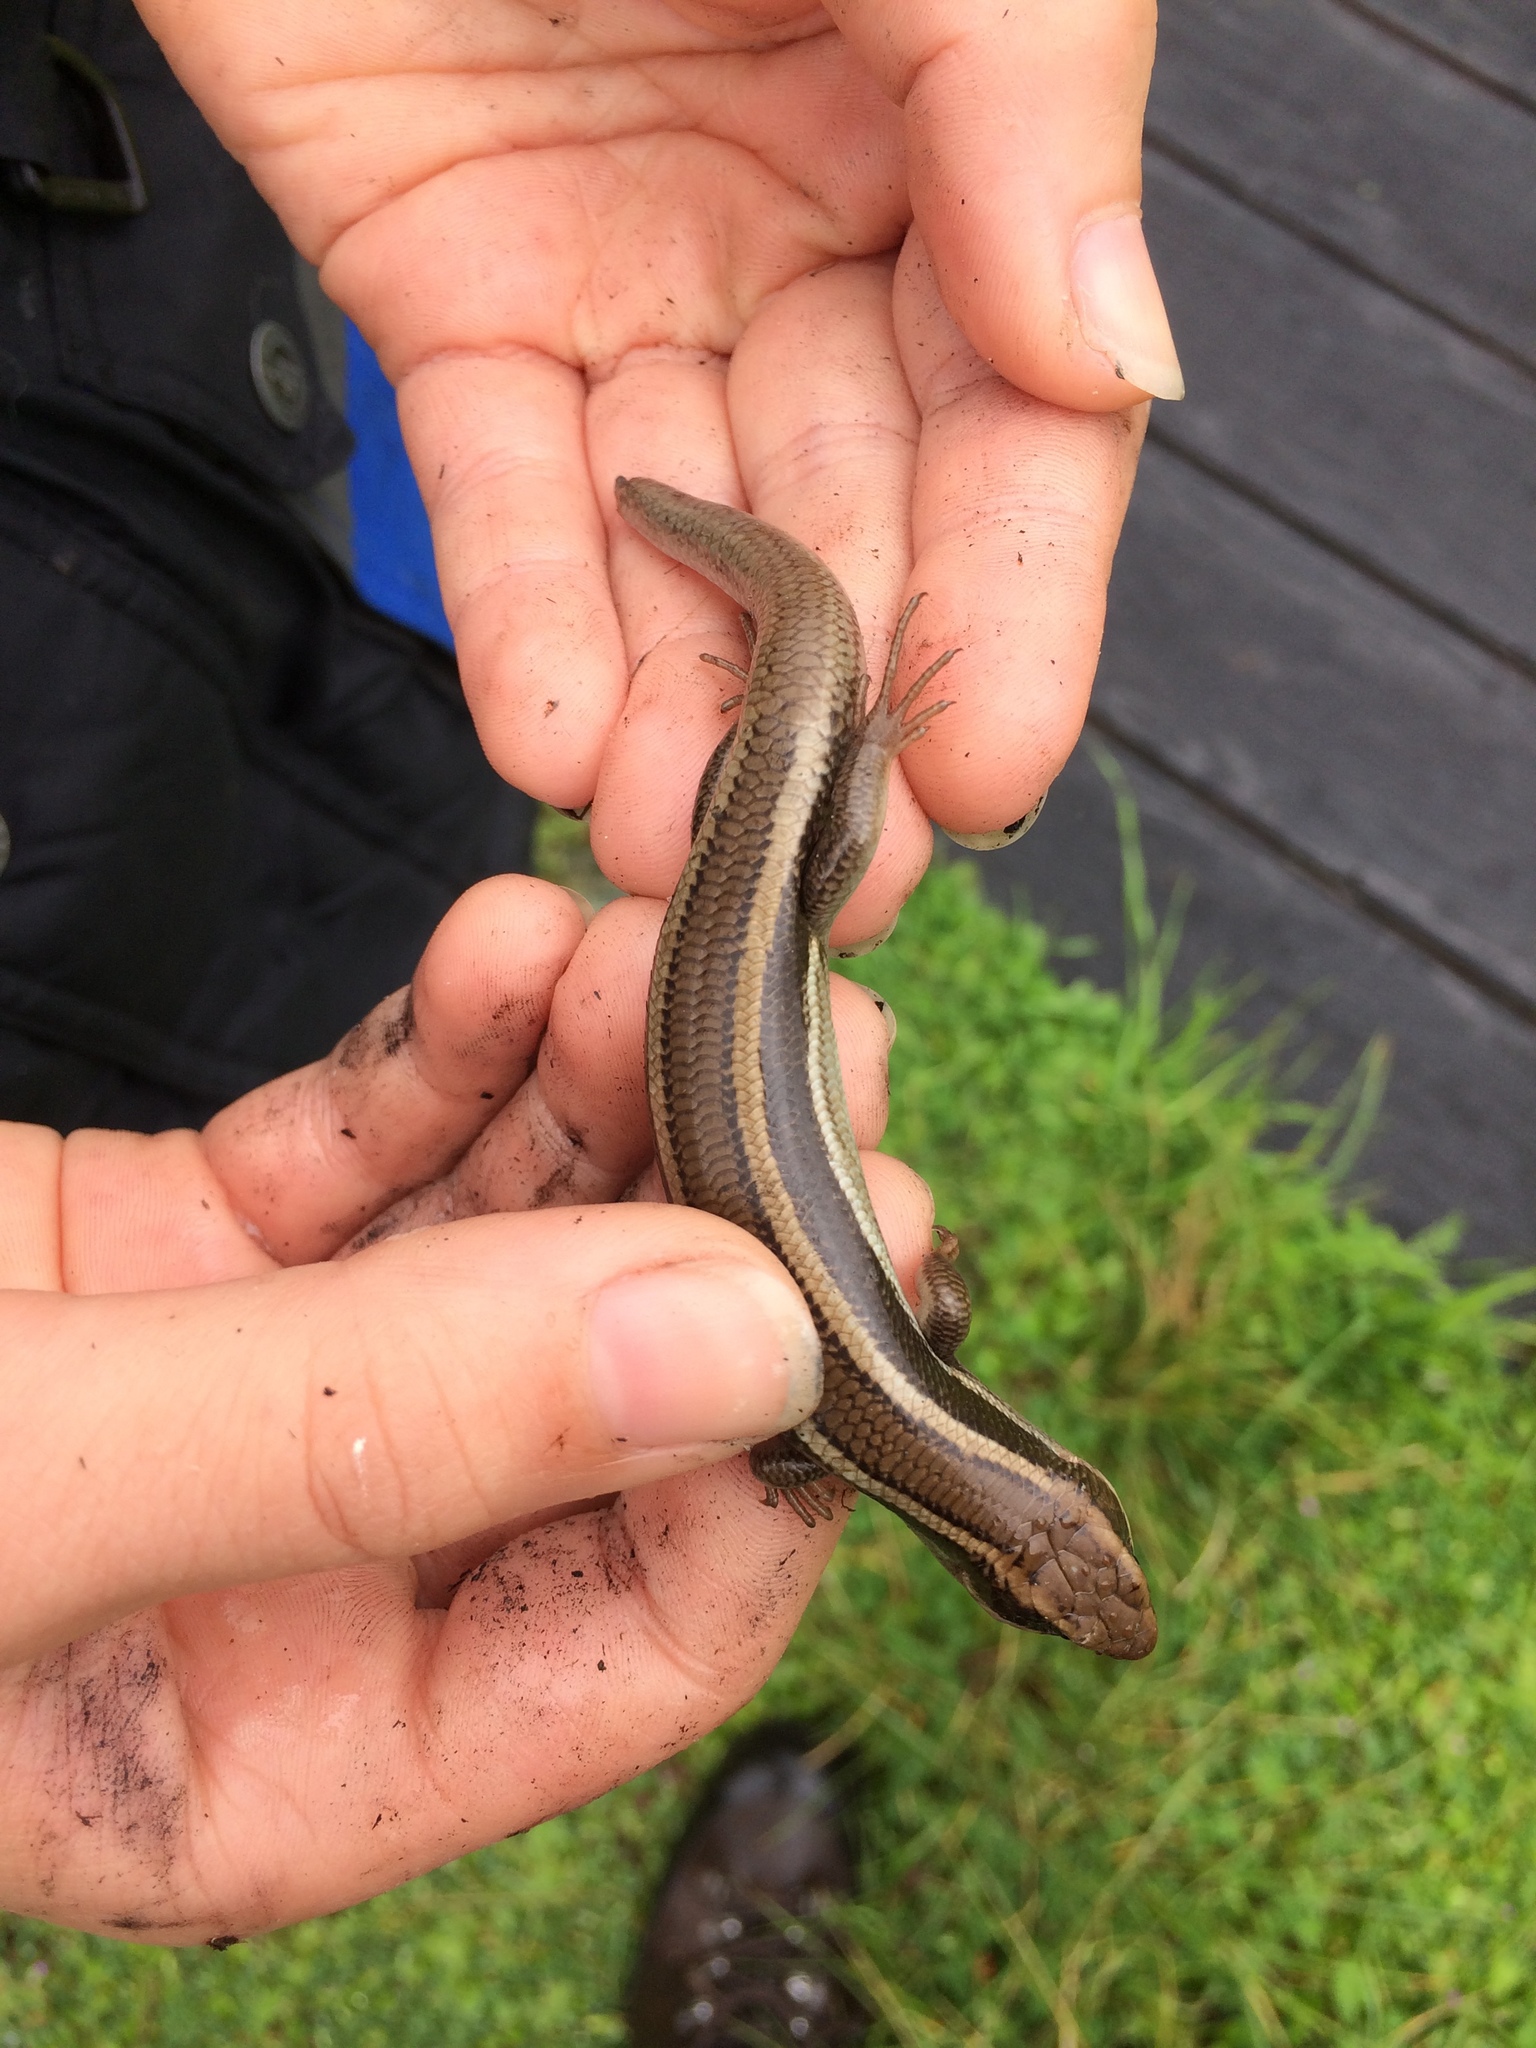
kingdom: Animalia
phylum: Chordata
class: Squamata
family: Scincidae
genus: Plestiodon
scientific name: Plestiodon skiltonianus
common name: Coronado island skink [interparietalis]
